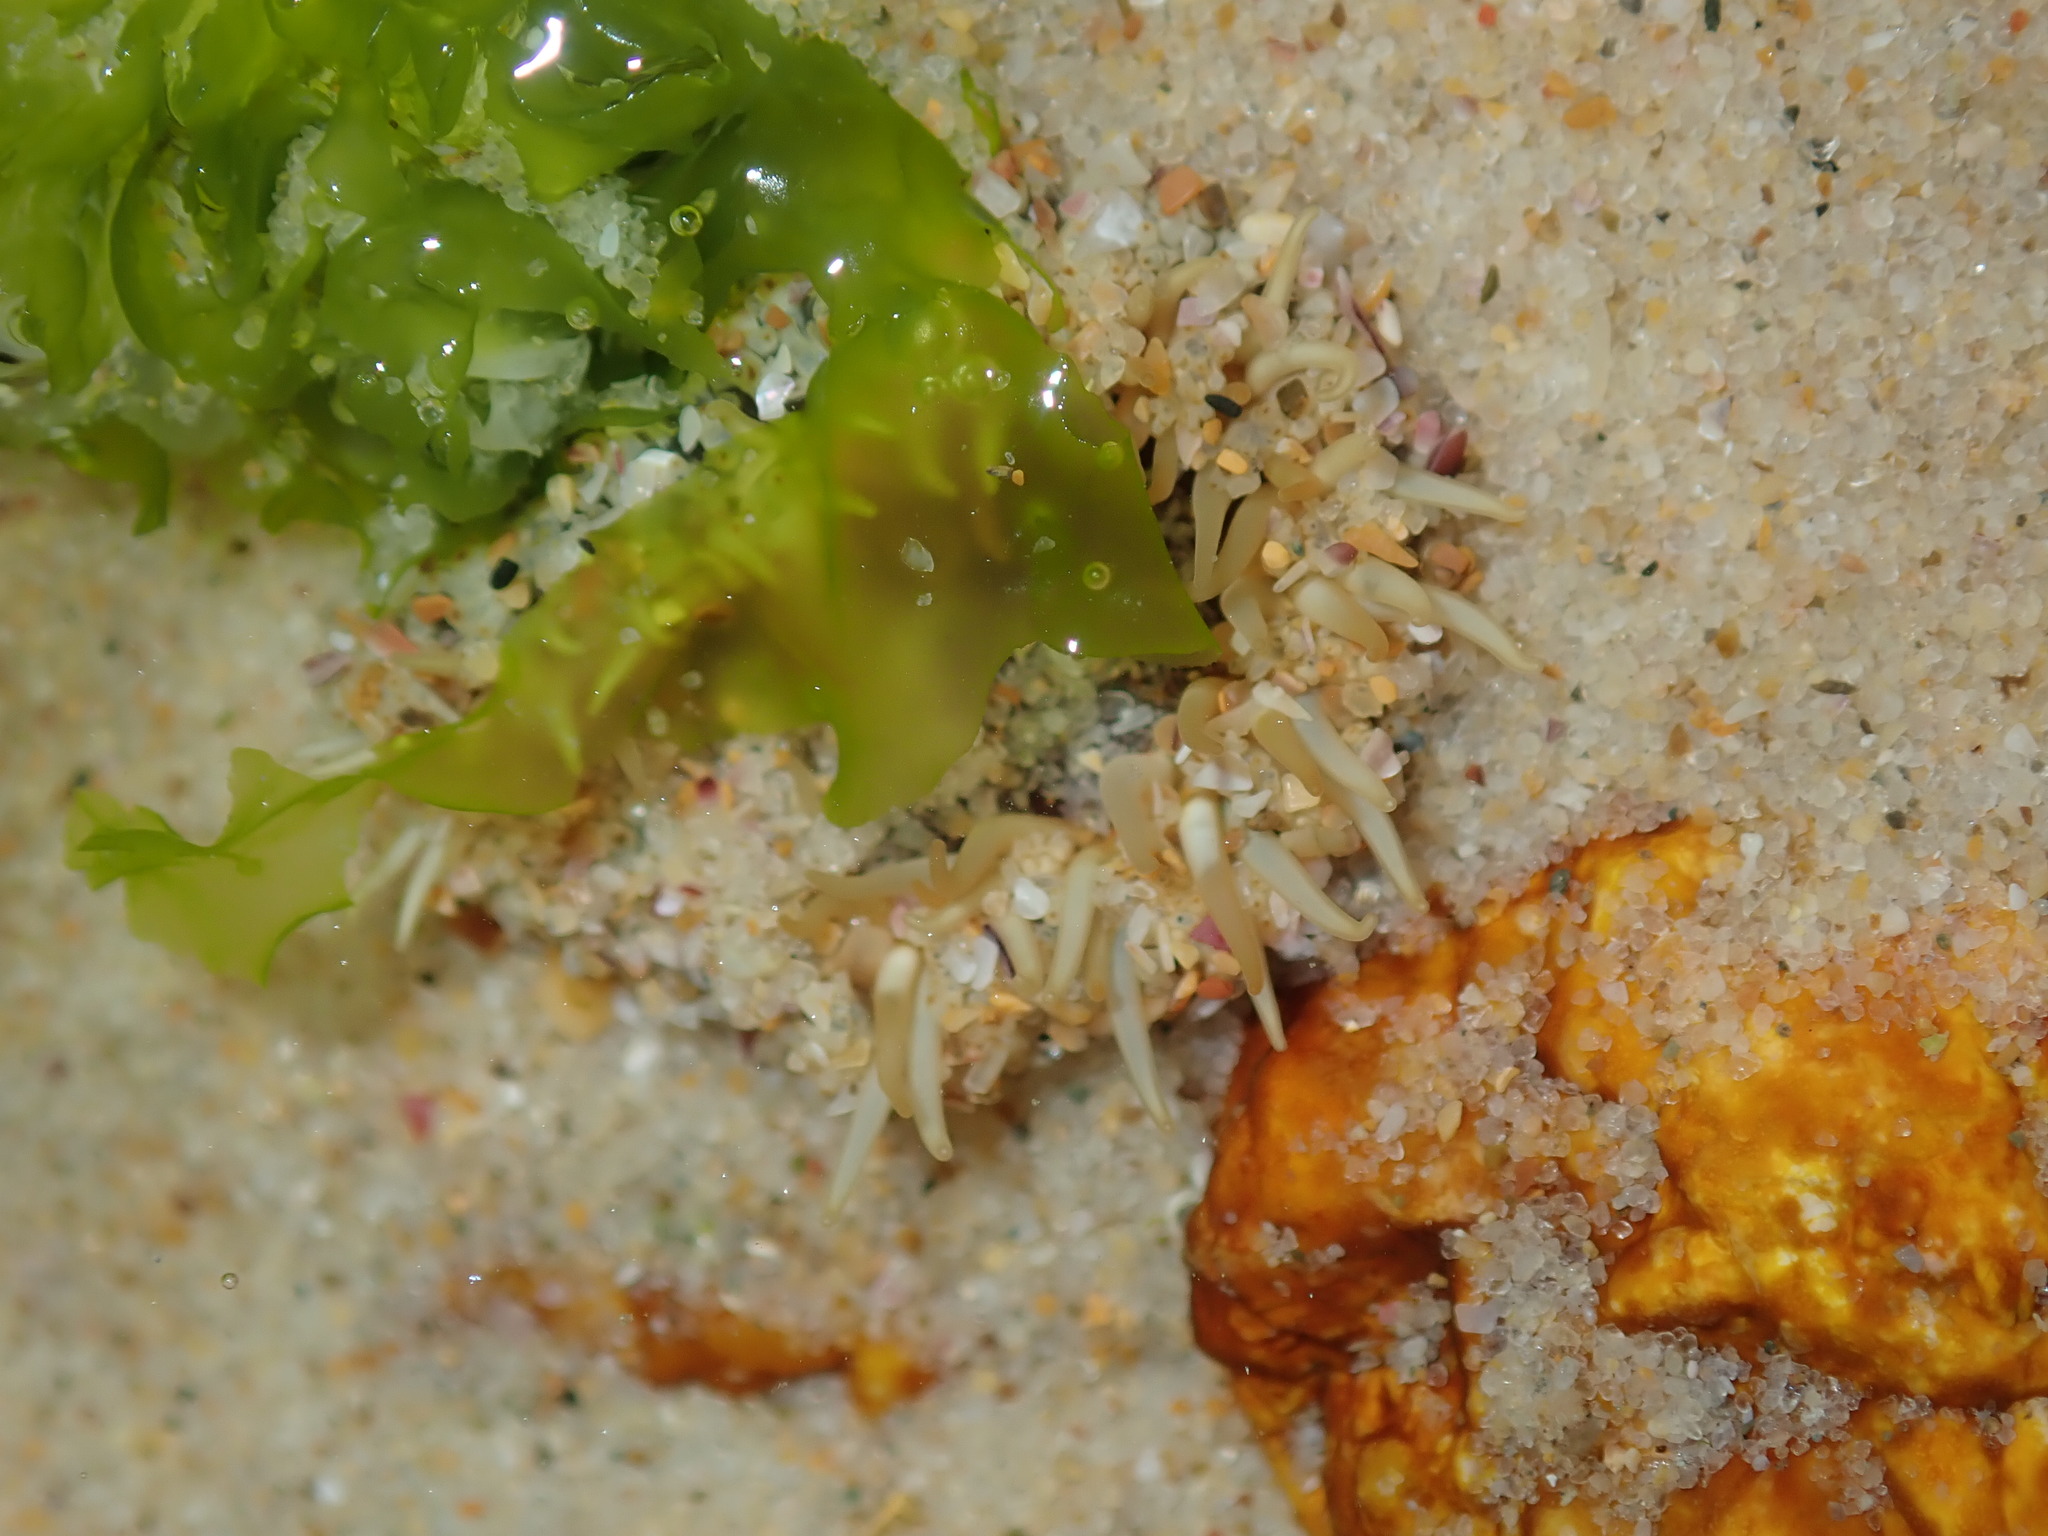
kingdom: Animalia
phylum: Cnidaria
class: Anthozoa
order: Actiniaria
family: Actiniidae
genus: Oulactis
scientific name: Oulactis muscosa
